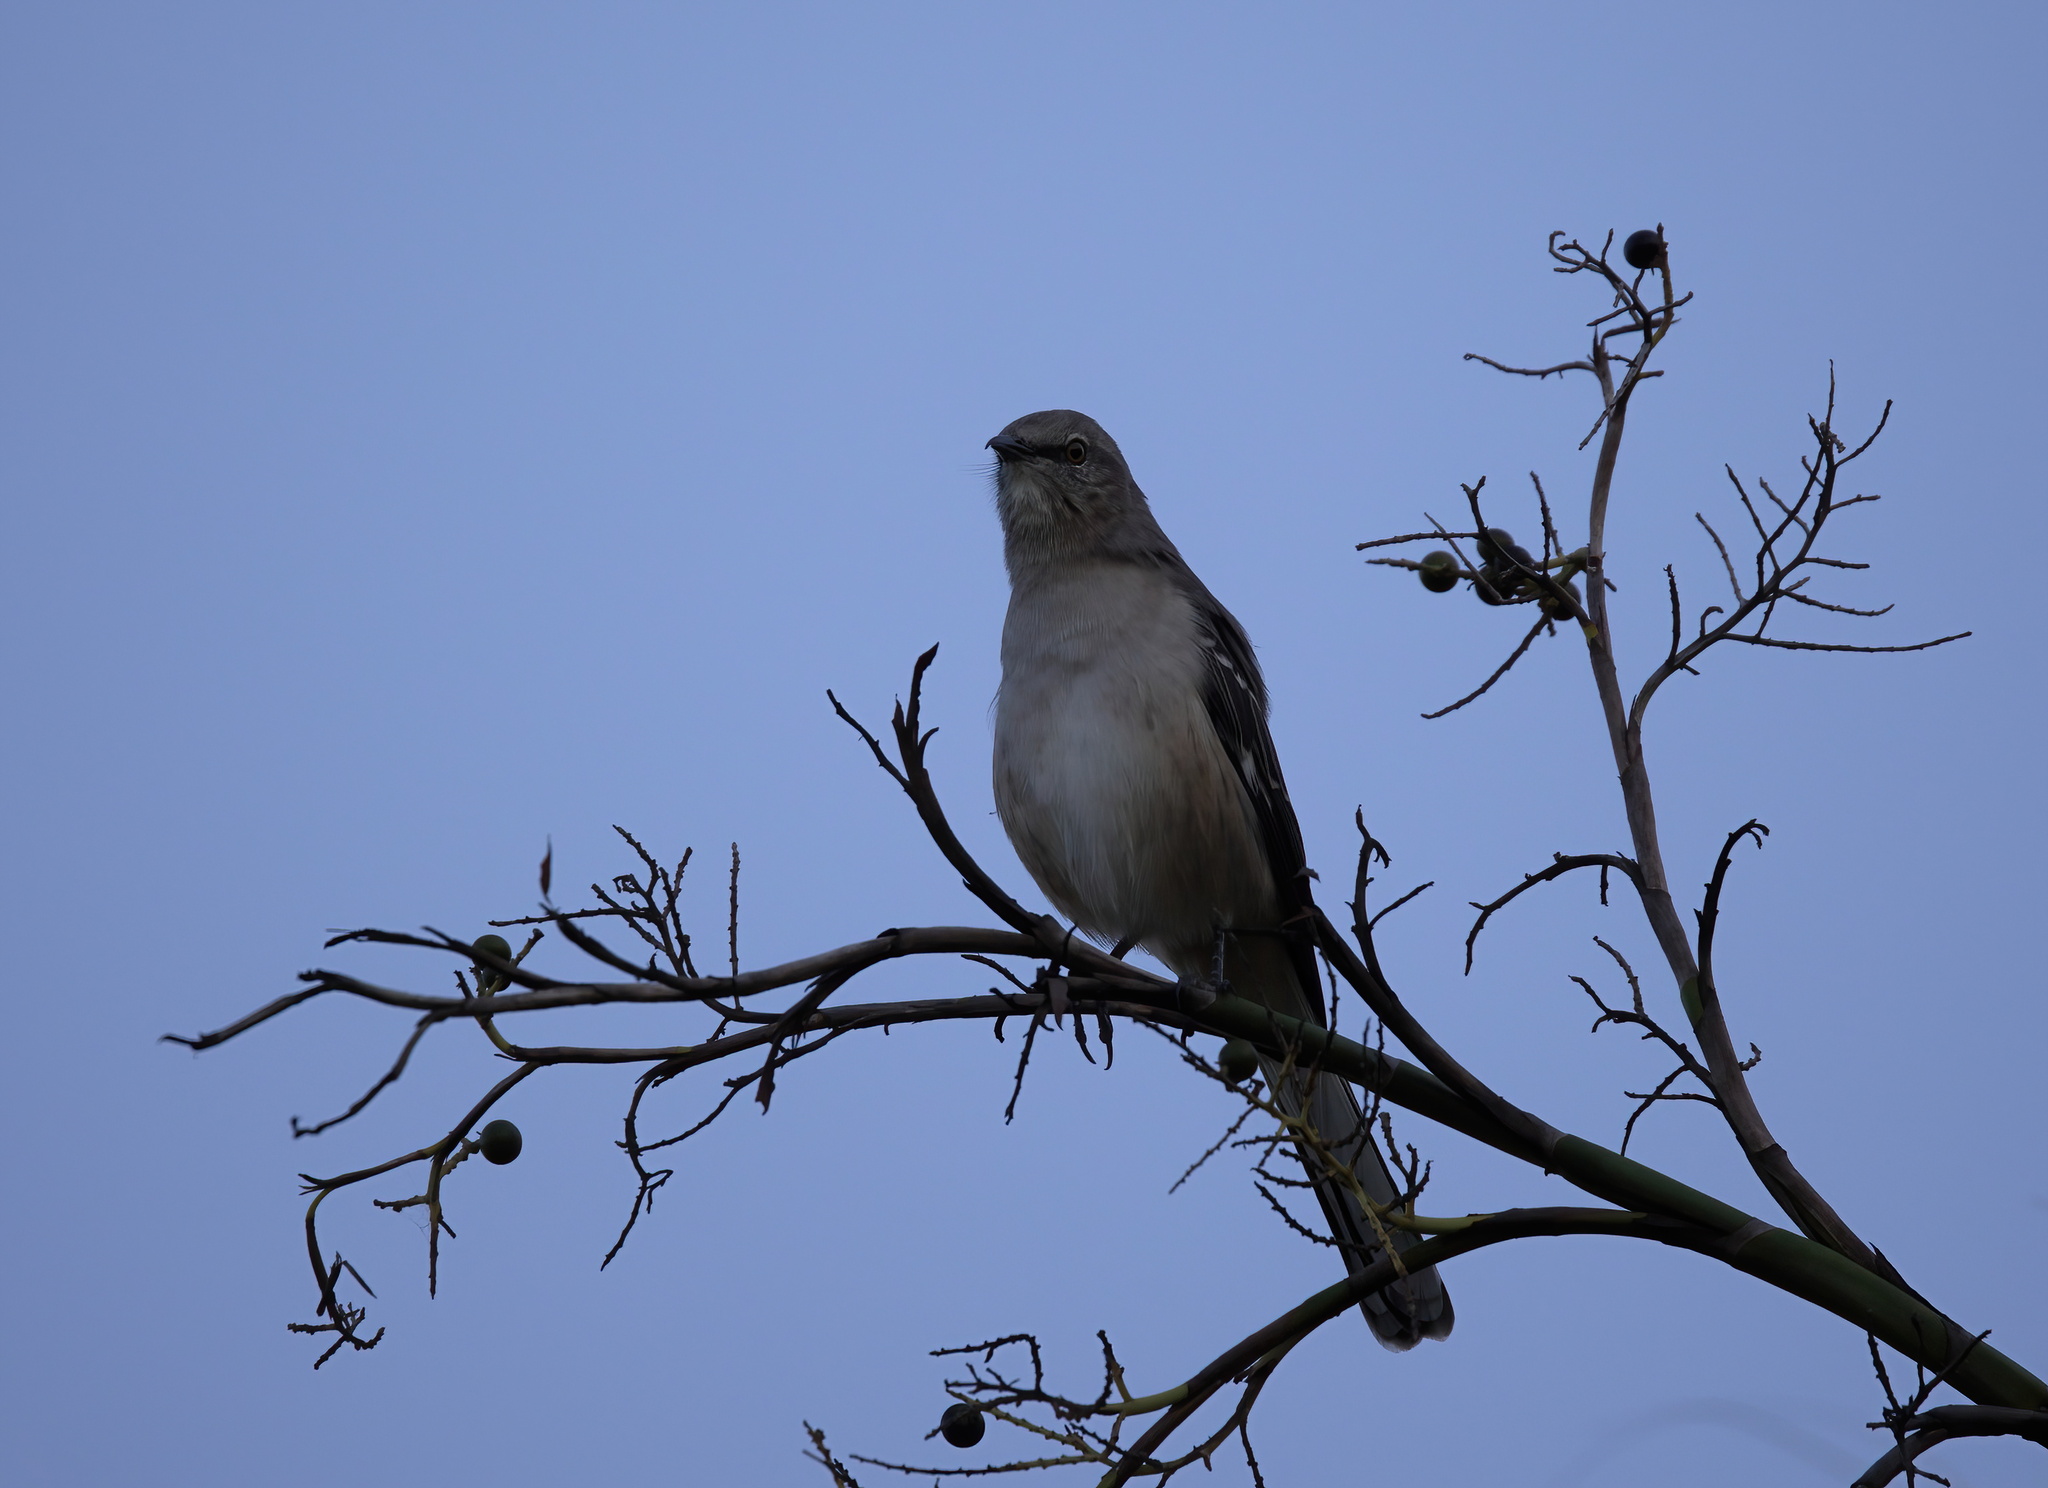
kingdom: Animalia
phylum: Chordata
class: Aves
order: Passeriformes
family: Mimidae
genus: Mimus
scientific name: Mimus polyglottos
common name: Northern mockingbird
